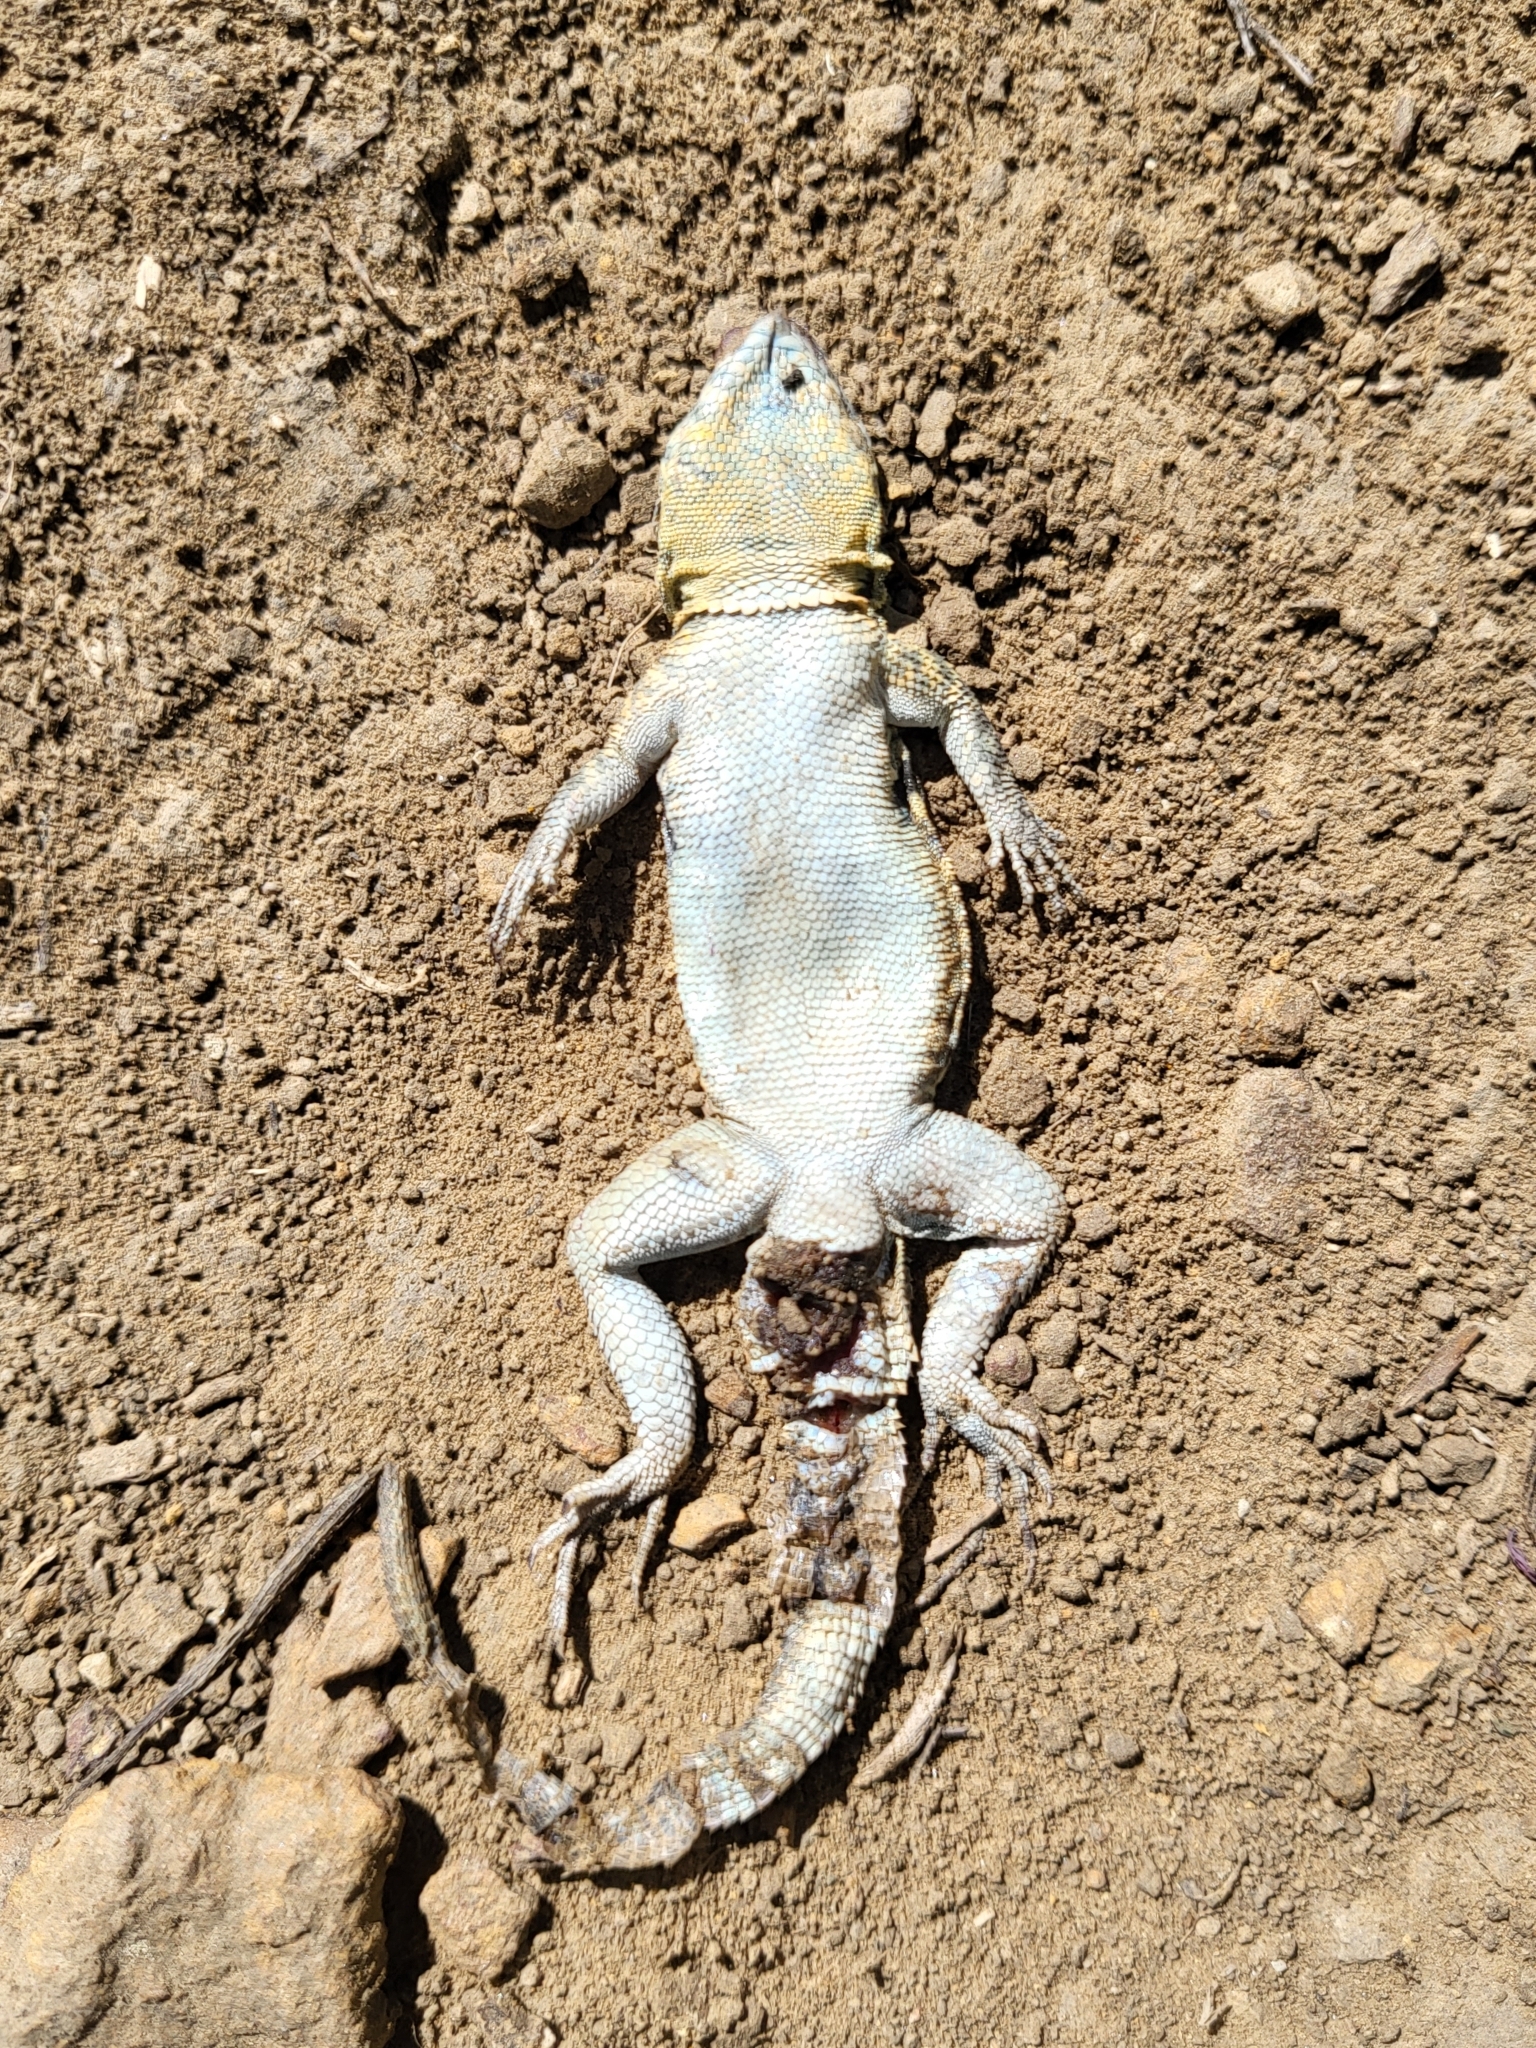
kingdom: Animalia
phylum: Chordata
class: Squamata
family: Phrynosomatidae
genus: Uta
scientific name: Uta stansburiana
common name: Side-blotched lizard
